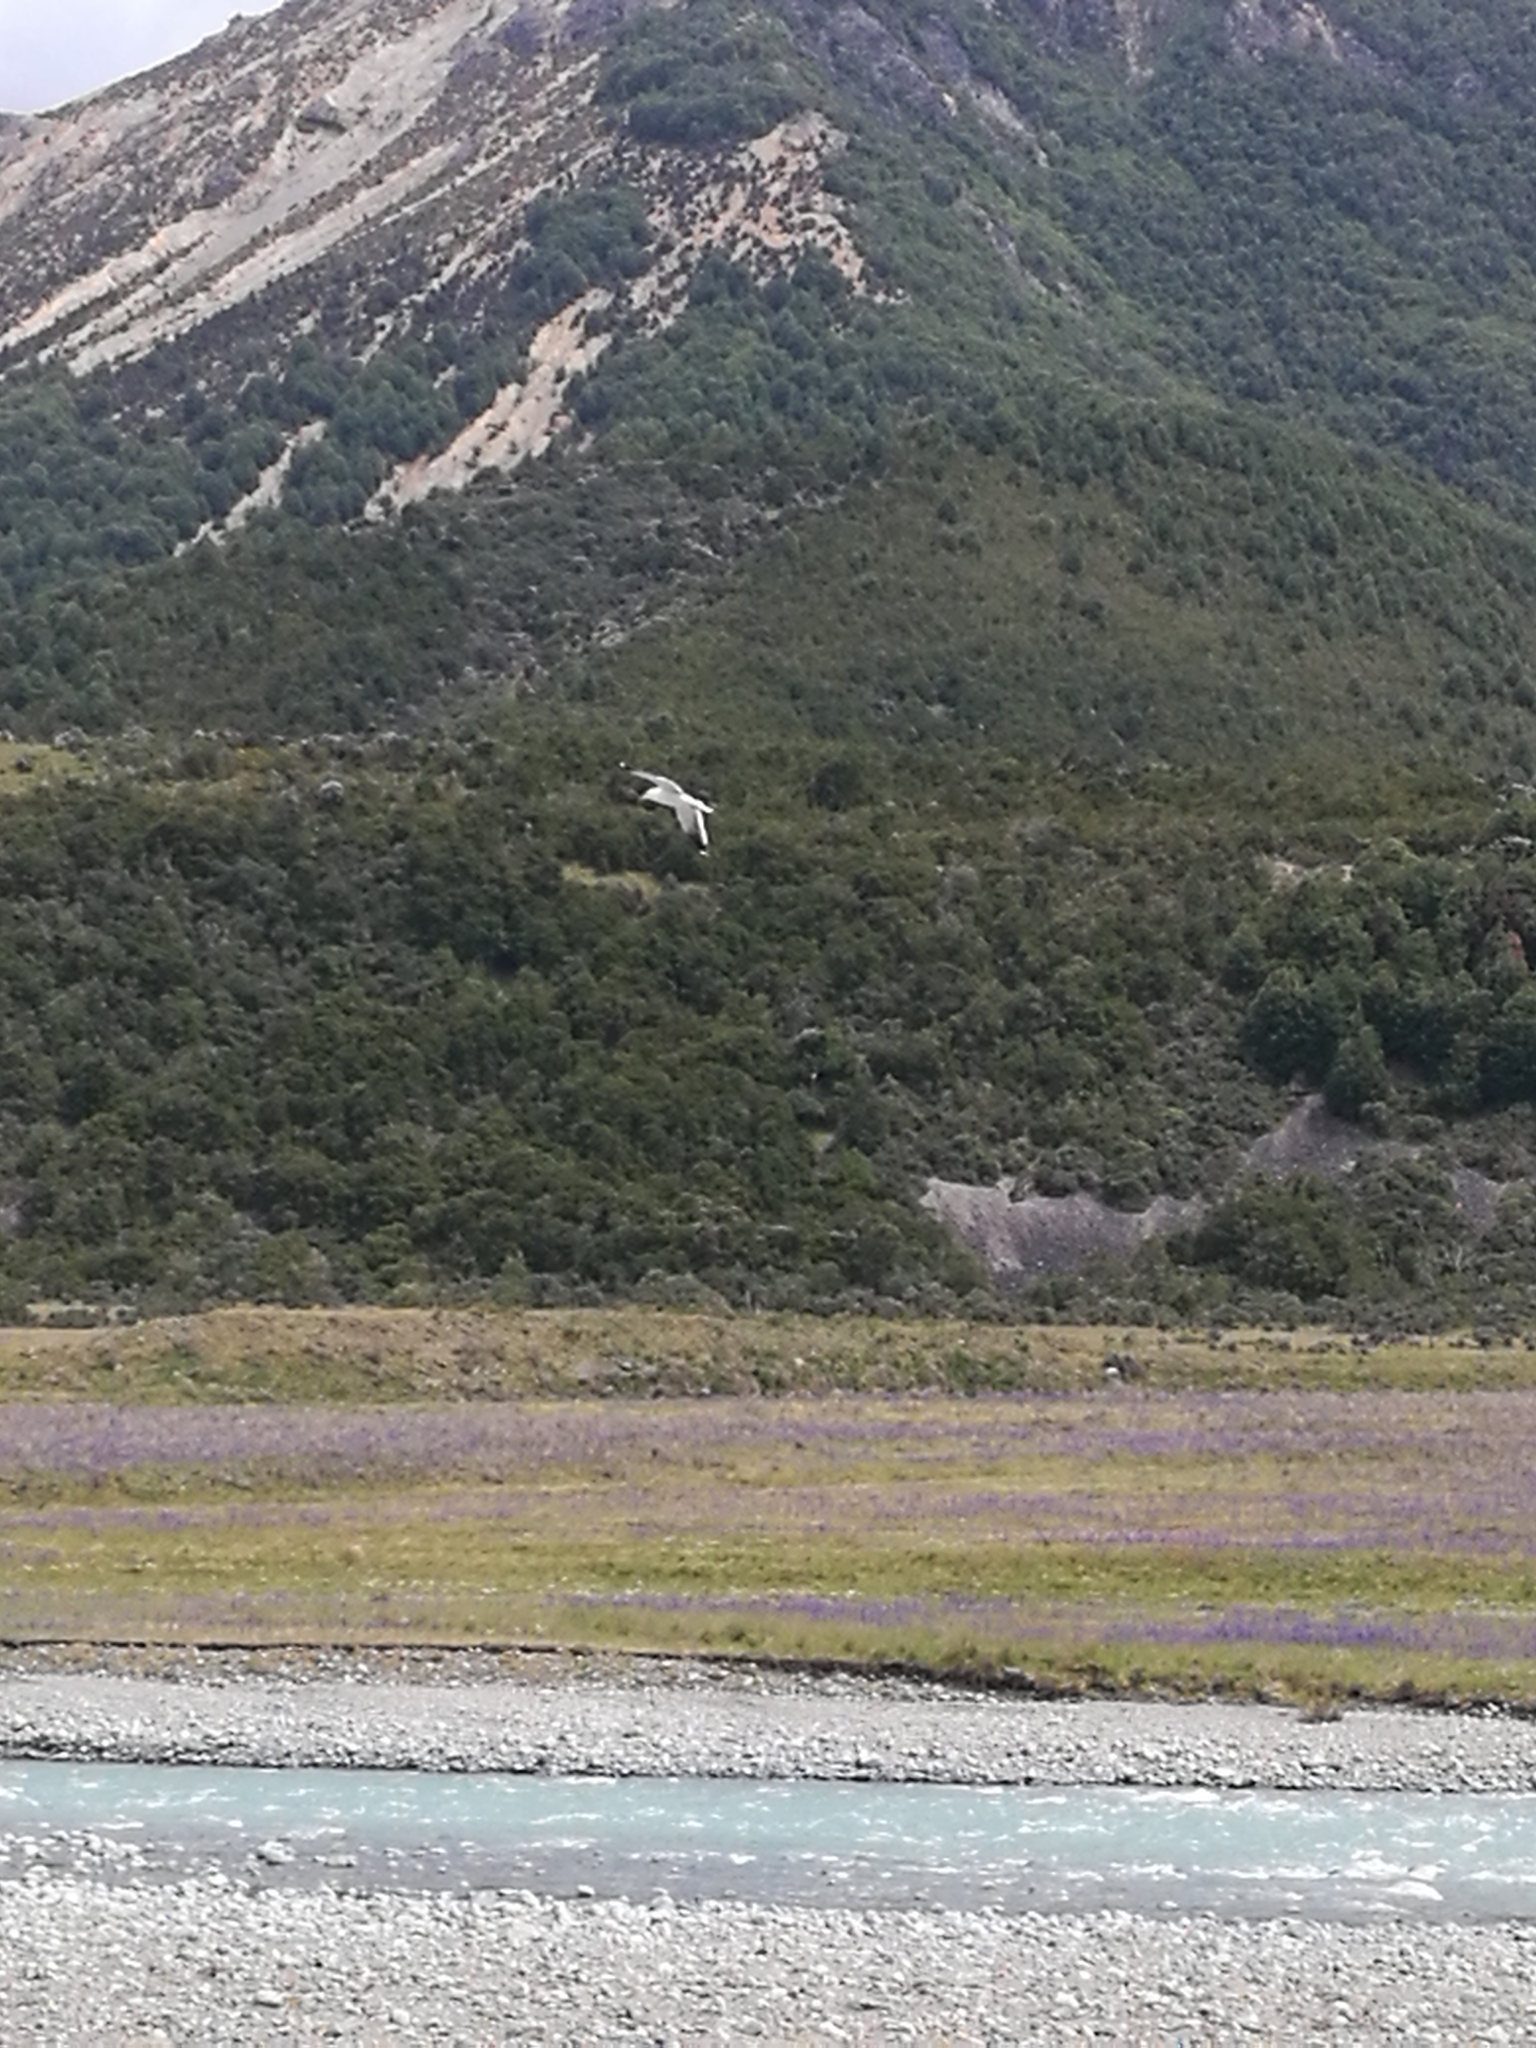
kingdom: Animalia
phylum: Chordata
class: Aves
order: Charadriiformes
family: Laridae
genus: Chroicocephalus
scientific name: Chroicocephalus novaehollandiae
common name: Silver gull
